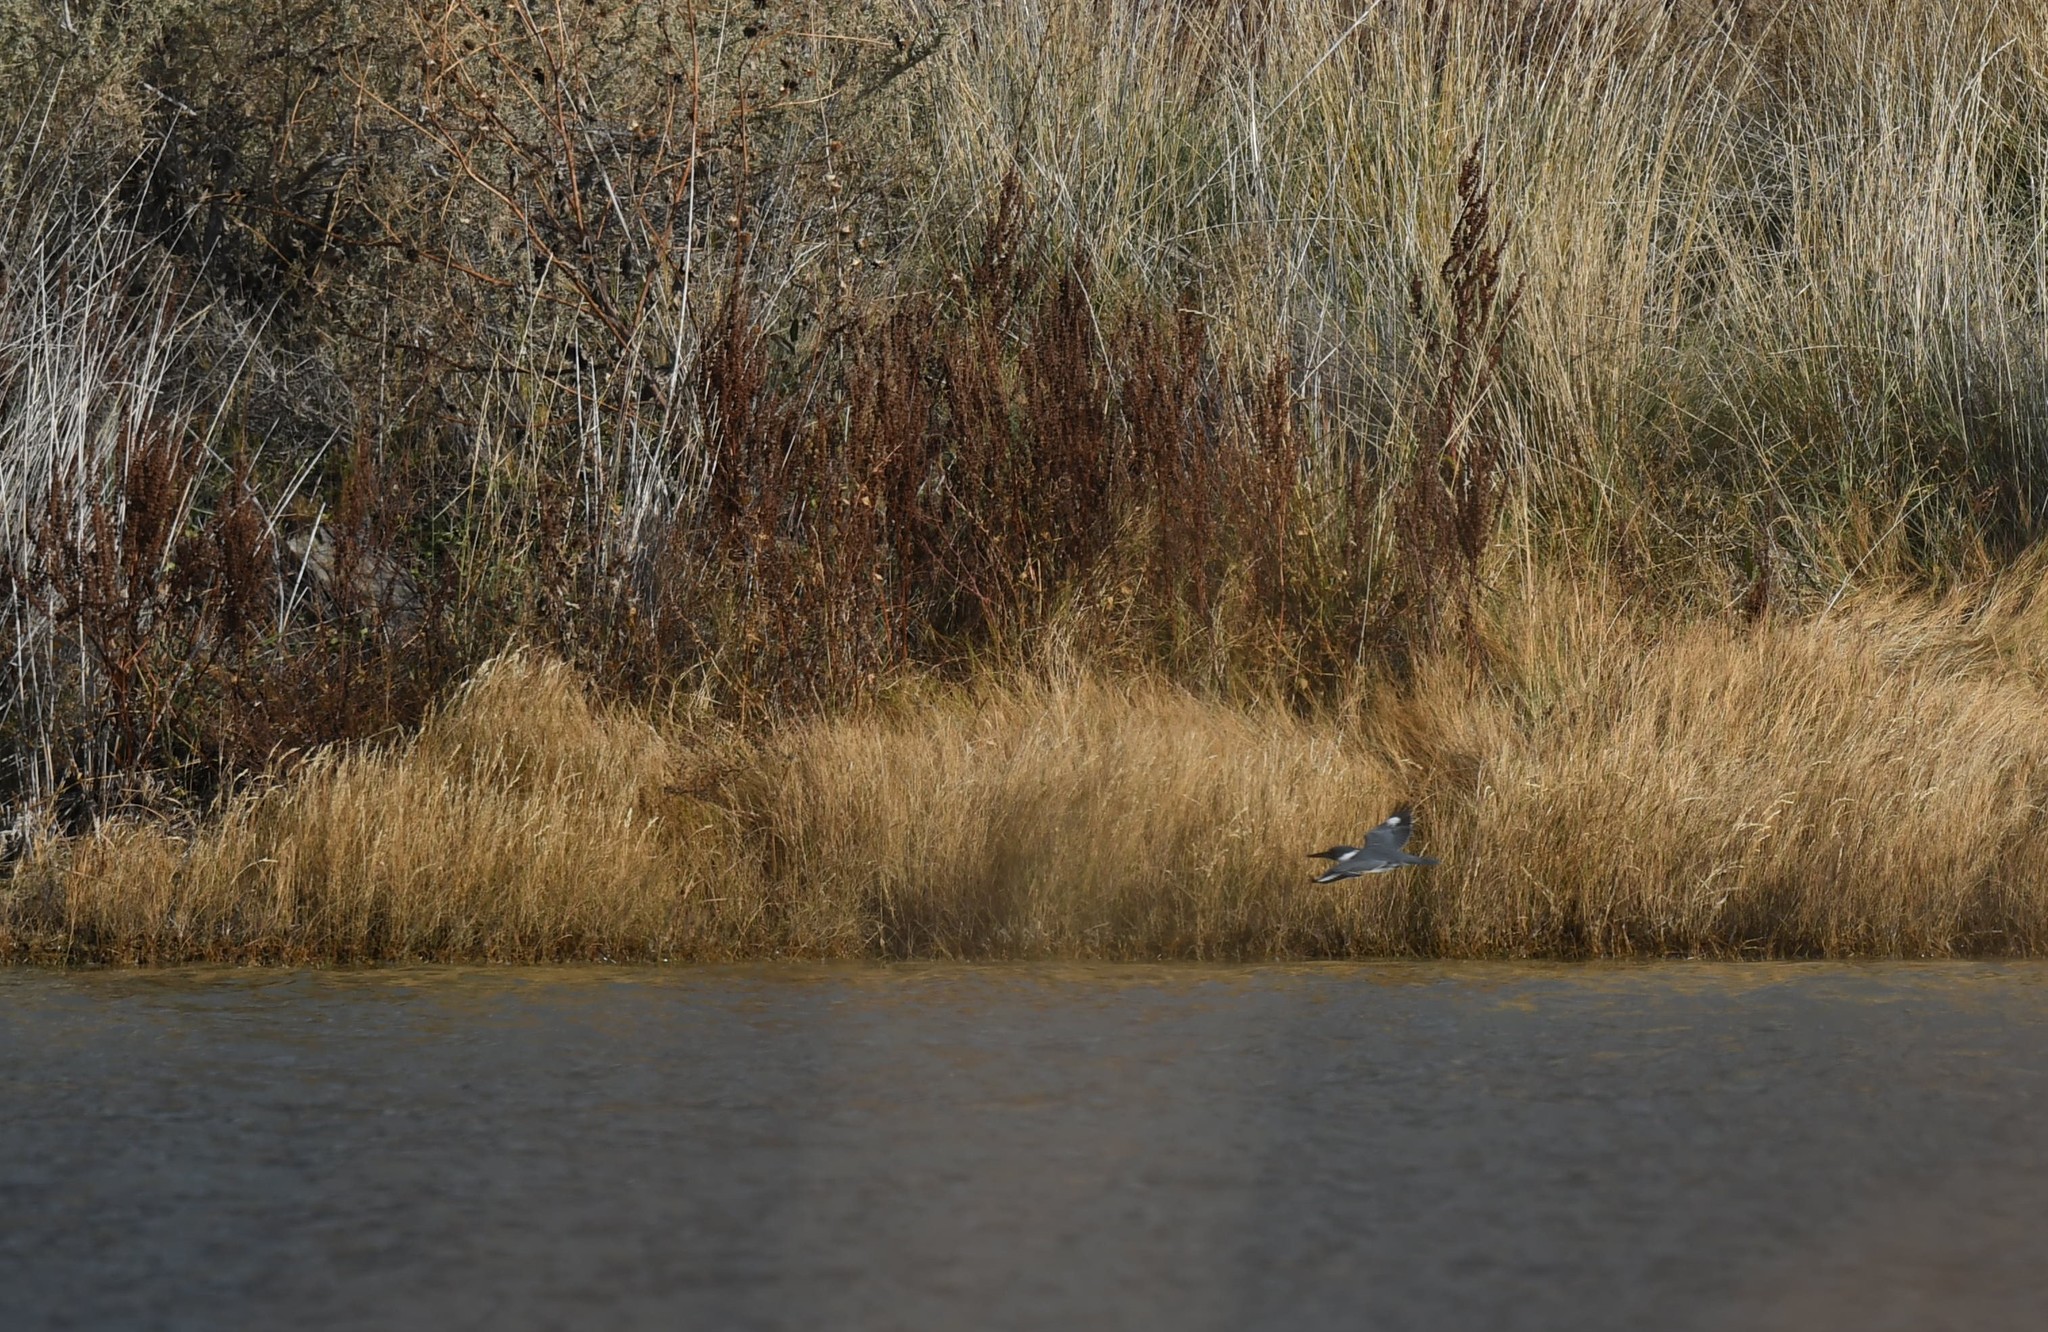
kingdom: Animalia
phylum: Chordata
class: Aves
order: Coraciiformes
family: Alcedinidae
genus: Megaceryle
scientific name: Megaceryle alcyon
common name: Belted kingfisher
